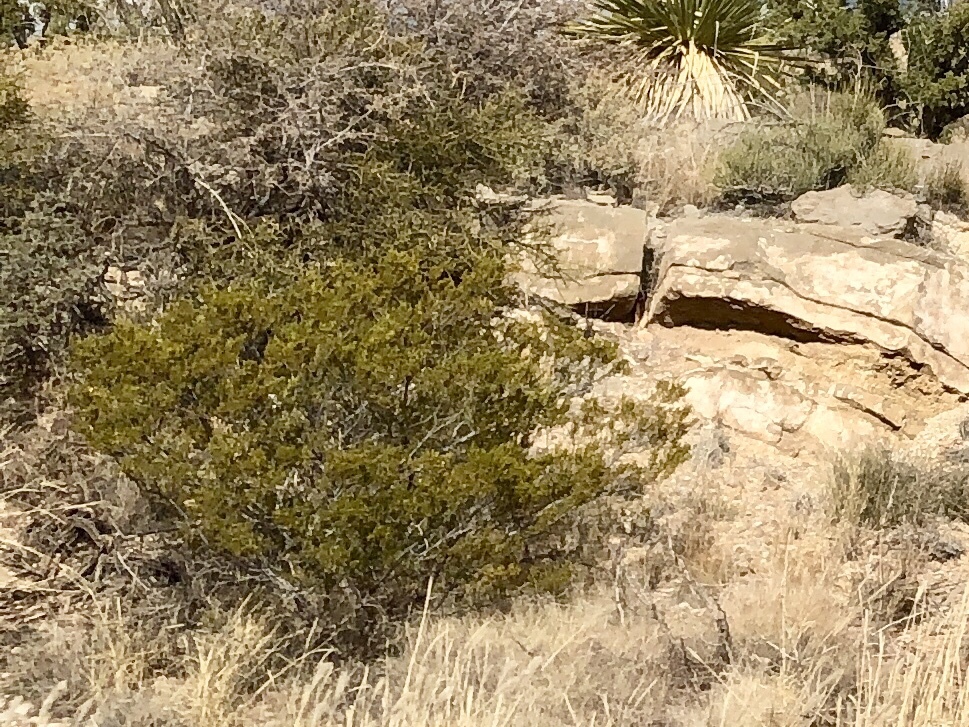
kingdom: Plantae
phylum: Tracheophyta
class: Magnoliopsida
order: Zygophyllales
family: Zygophyllaceae
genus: Larrea
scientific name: Larrea tridentata
